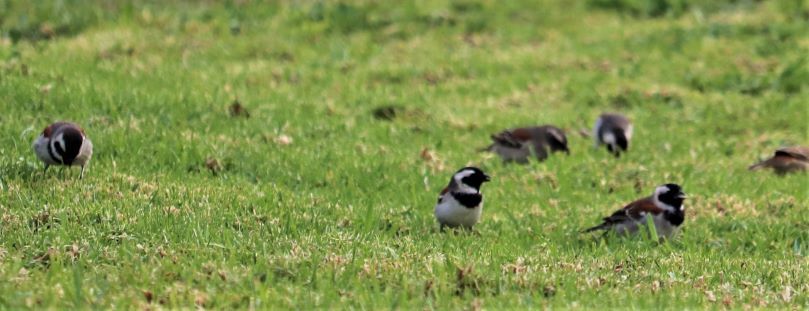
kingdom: Animalia
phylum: Chordata
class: Aves
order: Passeriformes
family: Passeridae
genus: Passer
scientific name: Passer melanurus
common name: Cape sparrow
